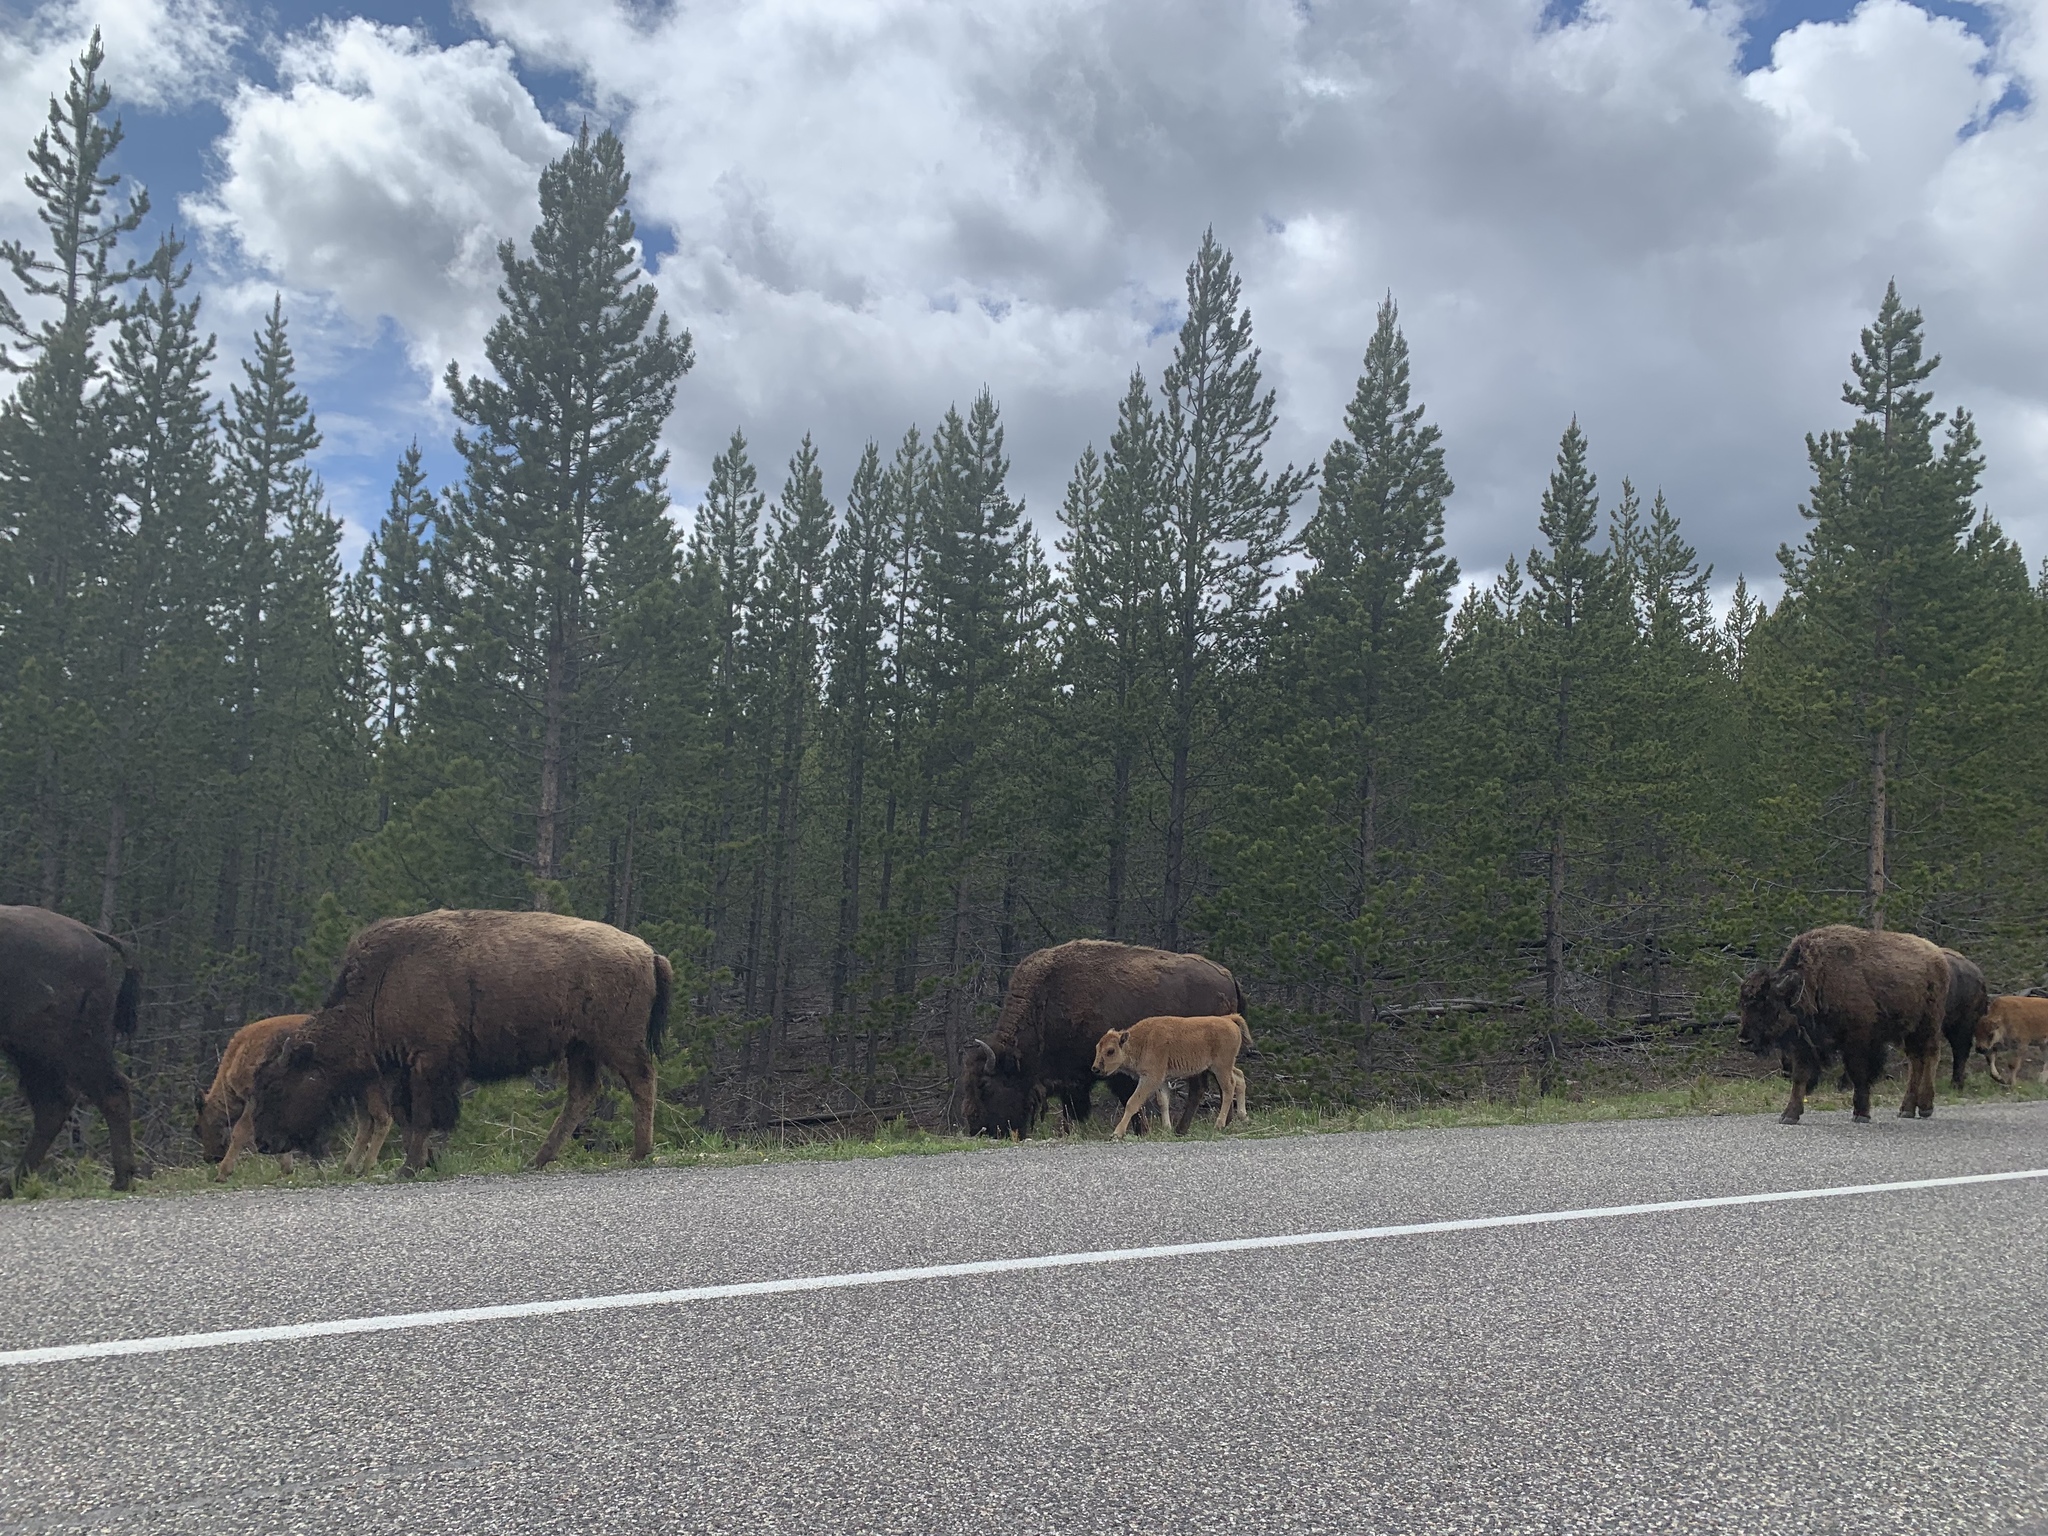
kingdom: Animalia
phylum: Chordata
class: Mammalia
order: Artiodactyla
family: Bovidae
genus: Bison
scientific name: Bison bison
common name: American bison
